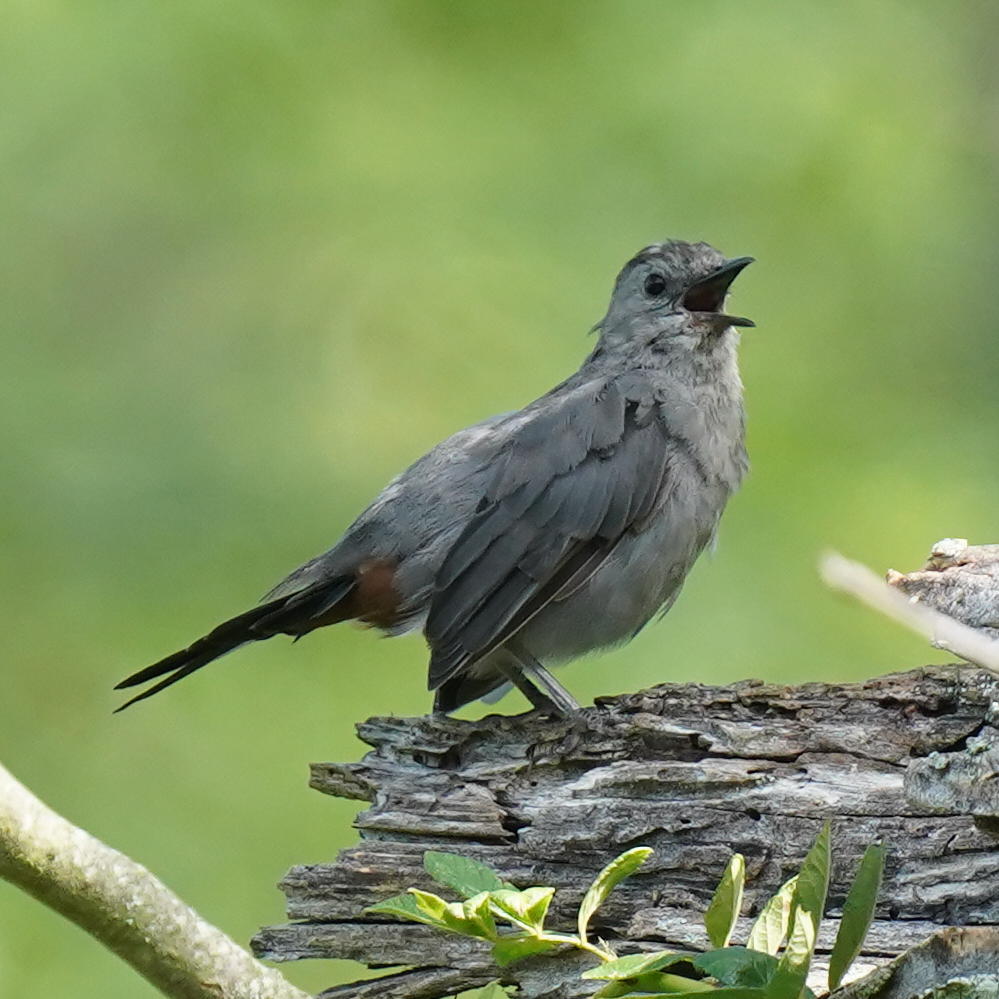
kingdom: Animalia
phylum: Chordata
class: Aves
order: Passeriformes
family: Mimidae
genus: Dumetella
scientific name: Dumetella carolinensis
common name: Gray catbird
